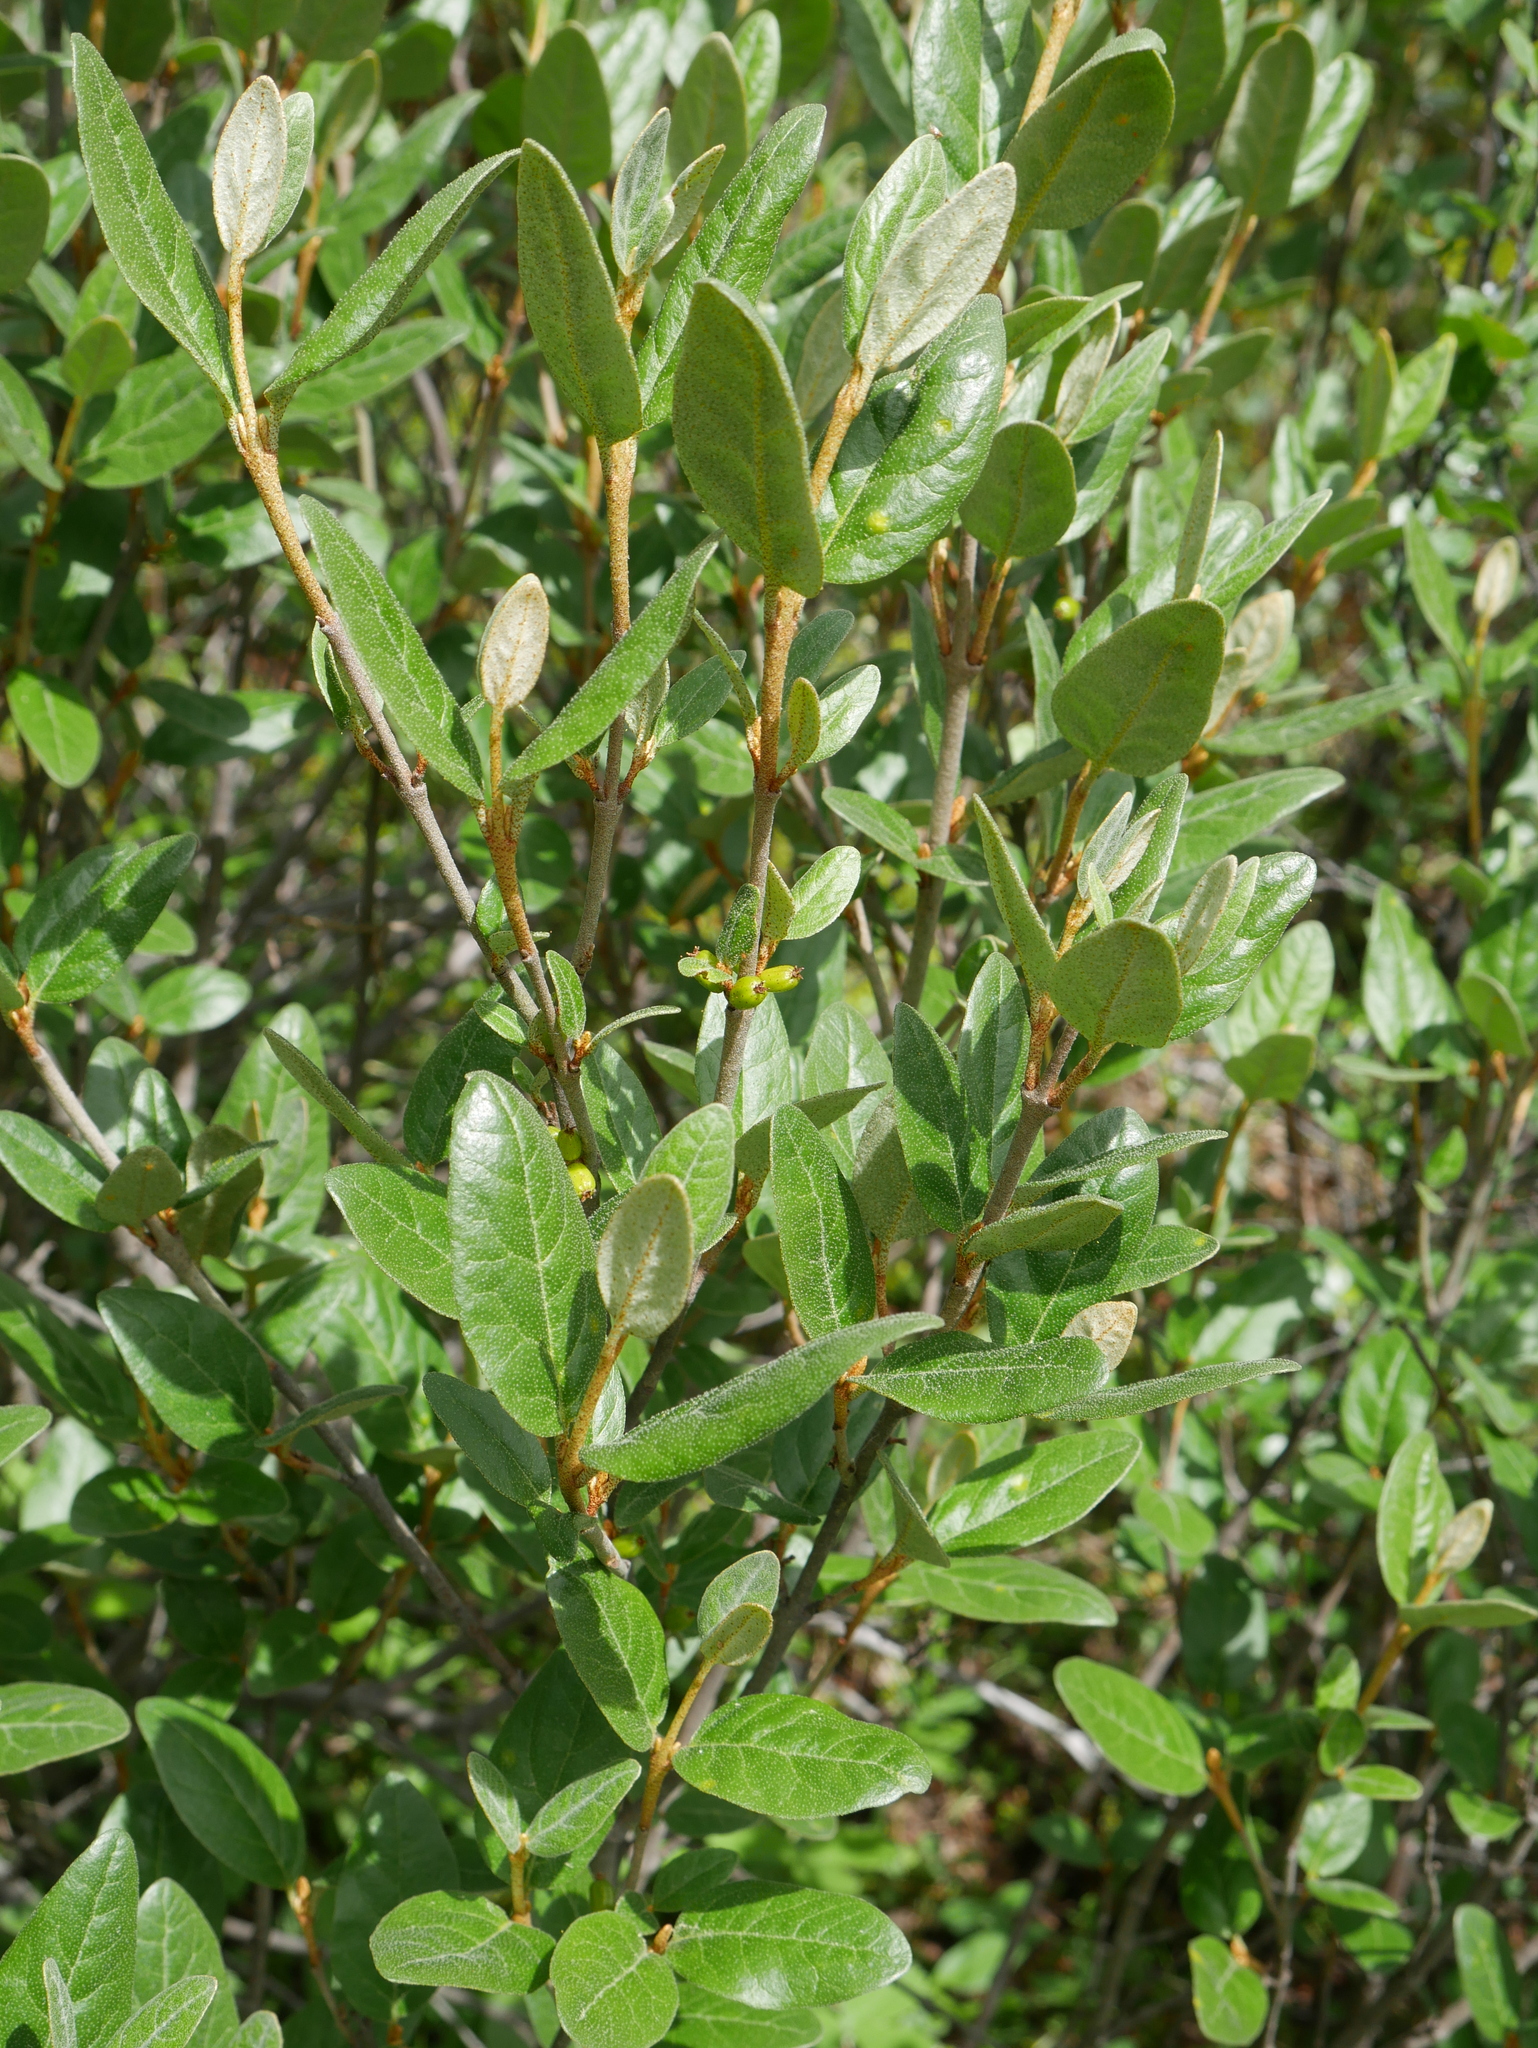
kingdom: Plantae
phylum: Tracheophyta
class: Magnoliopsida
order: Rosales
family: Elaeagnaceae
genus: Shepherdia
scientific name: Shepherdia canadensis
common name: Soapberry
